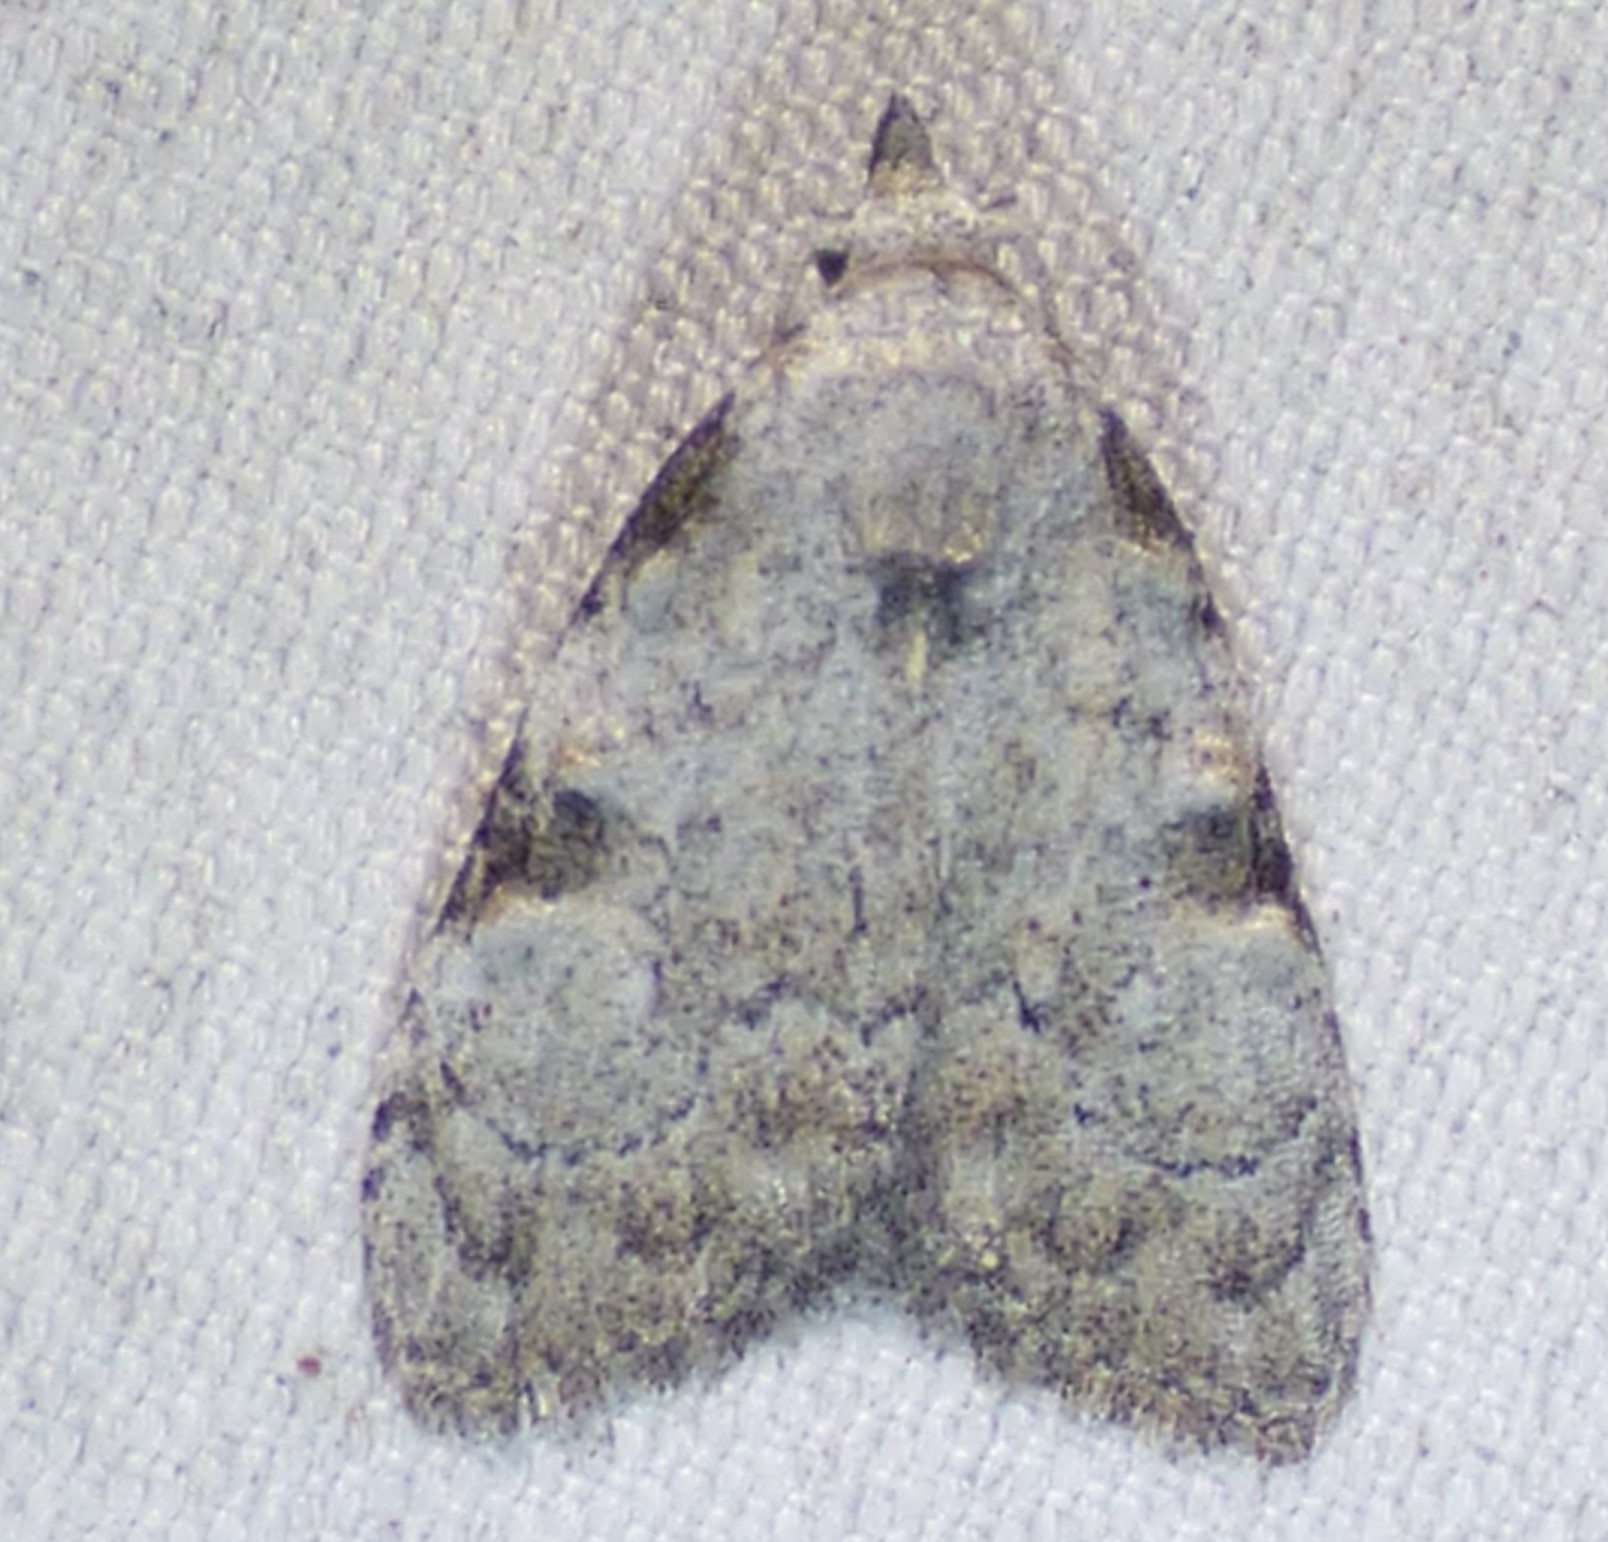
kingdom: Animalia
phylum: Arthropoda
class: Insecta
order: Lepidoptera
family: Nolidae
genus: Meganola
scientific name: Meganola minuscula
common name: Confused meganola moth
